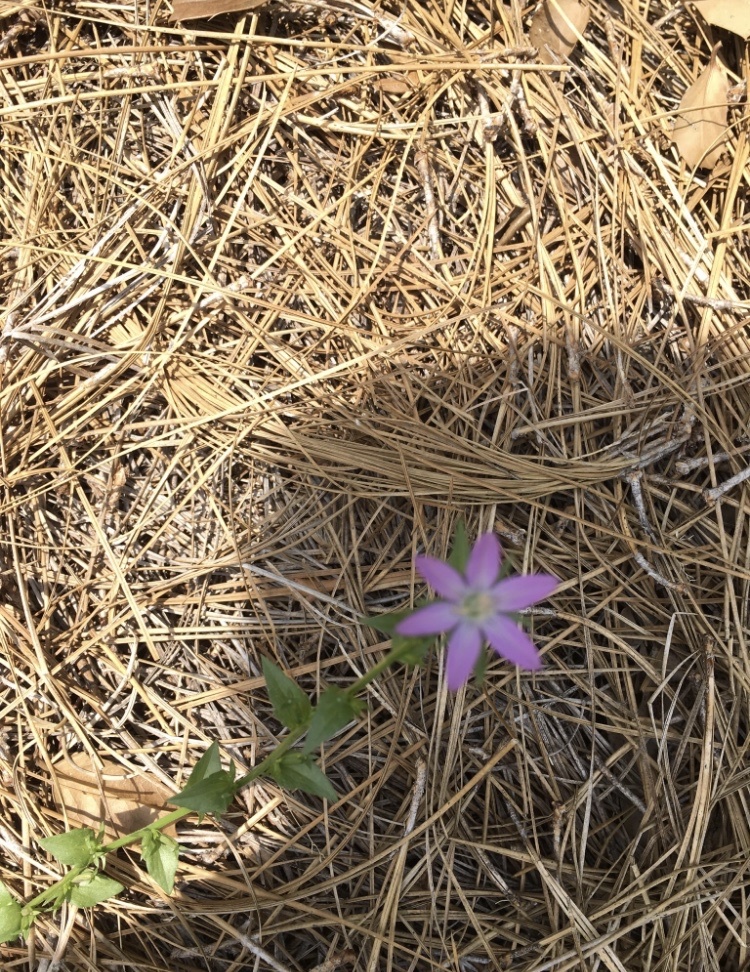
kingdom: Plantae
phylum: Tracheophyta
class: Magnoliopsida
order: Asterales
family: Campanulaceae
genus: Triodanis
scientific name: Triodanis biflora
